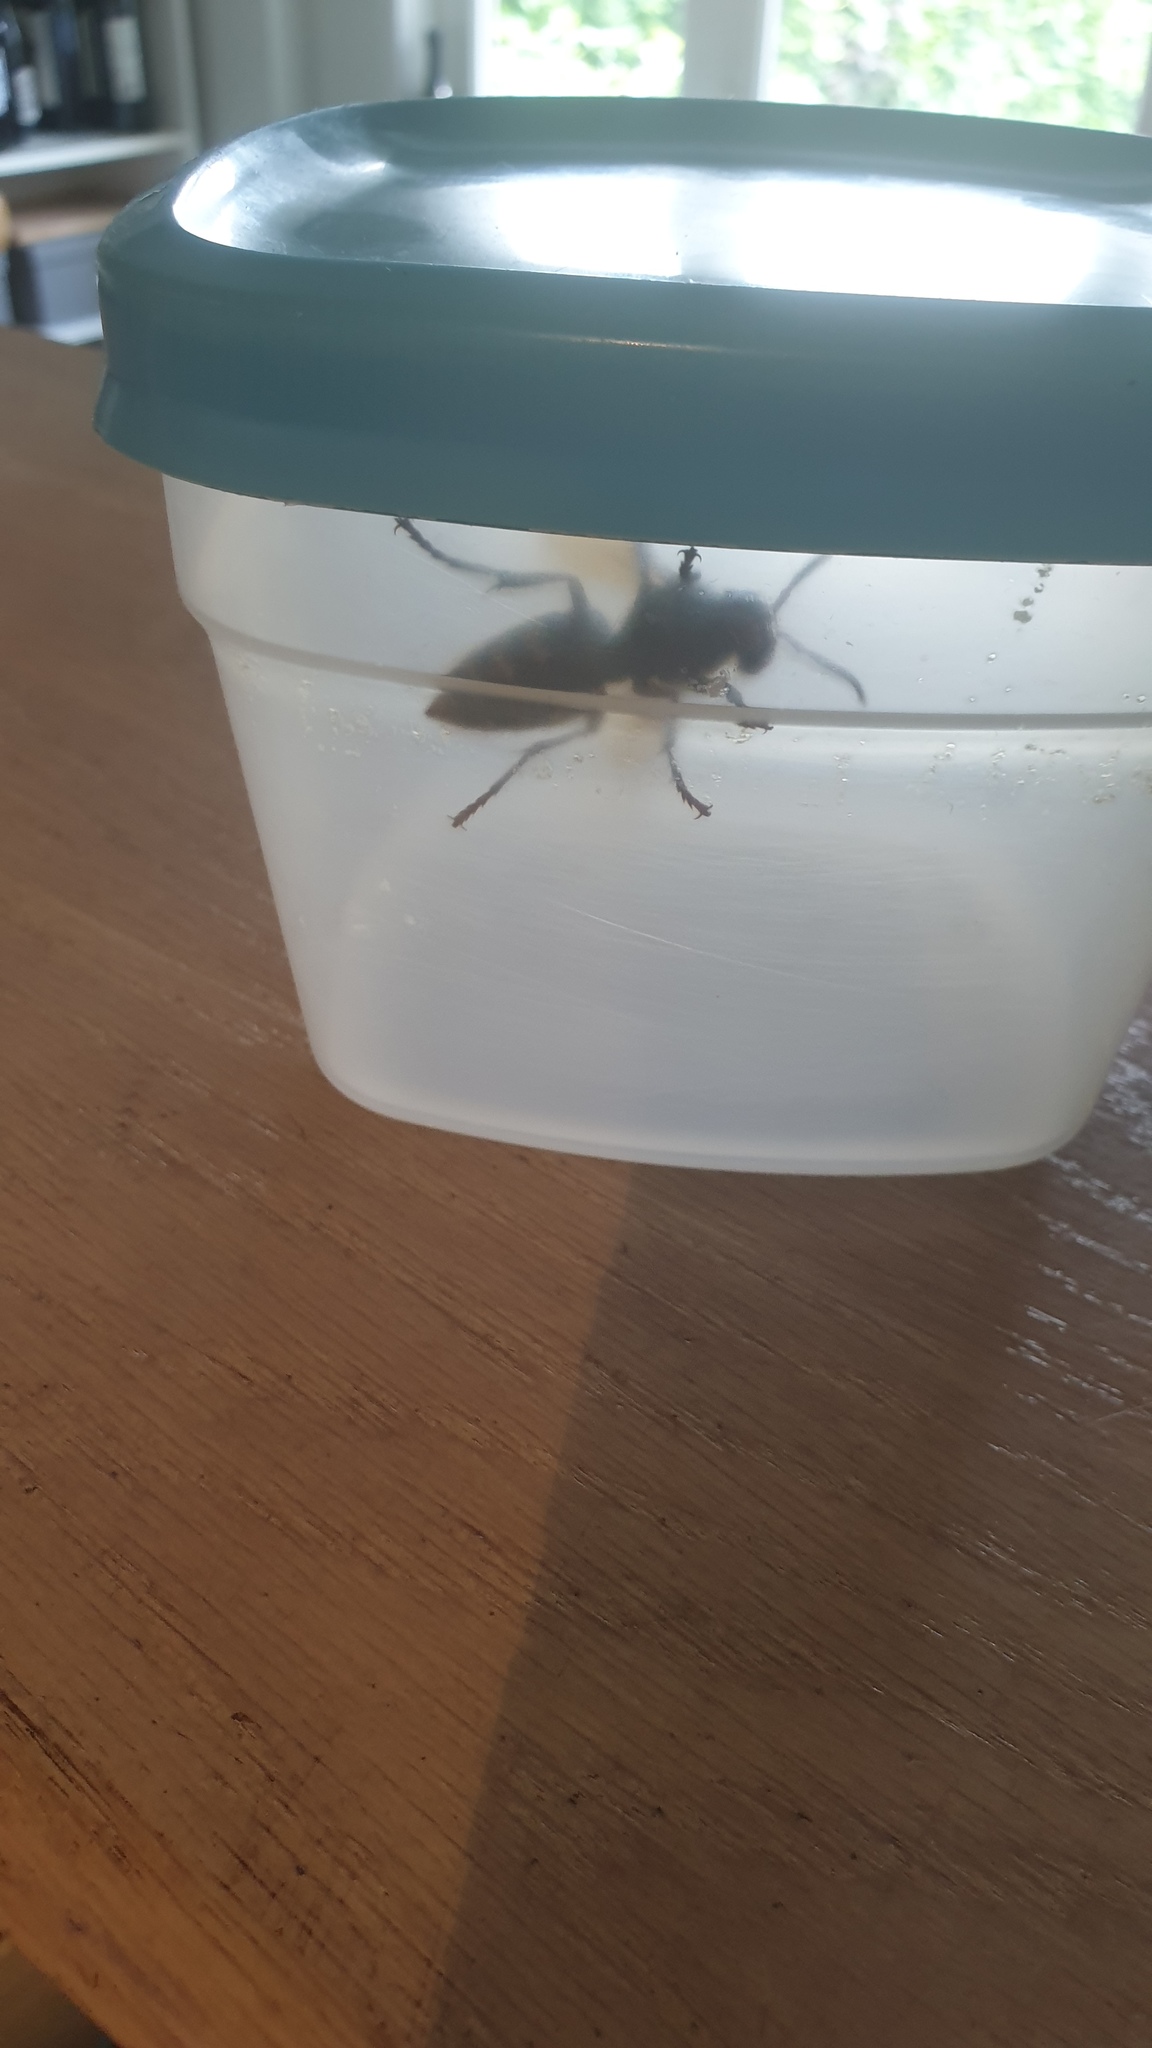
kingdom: Animalia
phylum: Arthropoda
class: Insecta
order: Hymenoptera
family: Vespidae
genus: Vespa
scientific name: Vespa crabro
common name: Hornet
